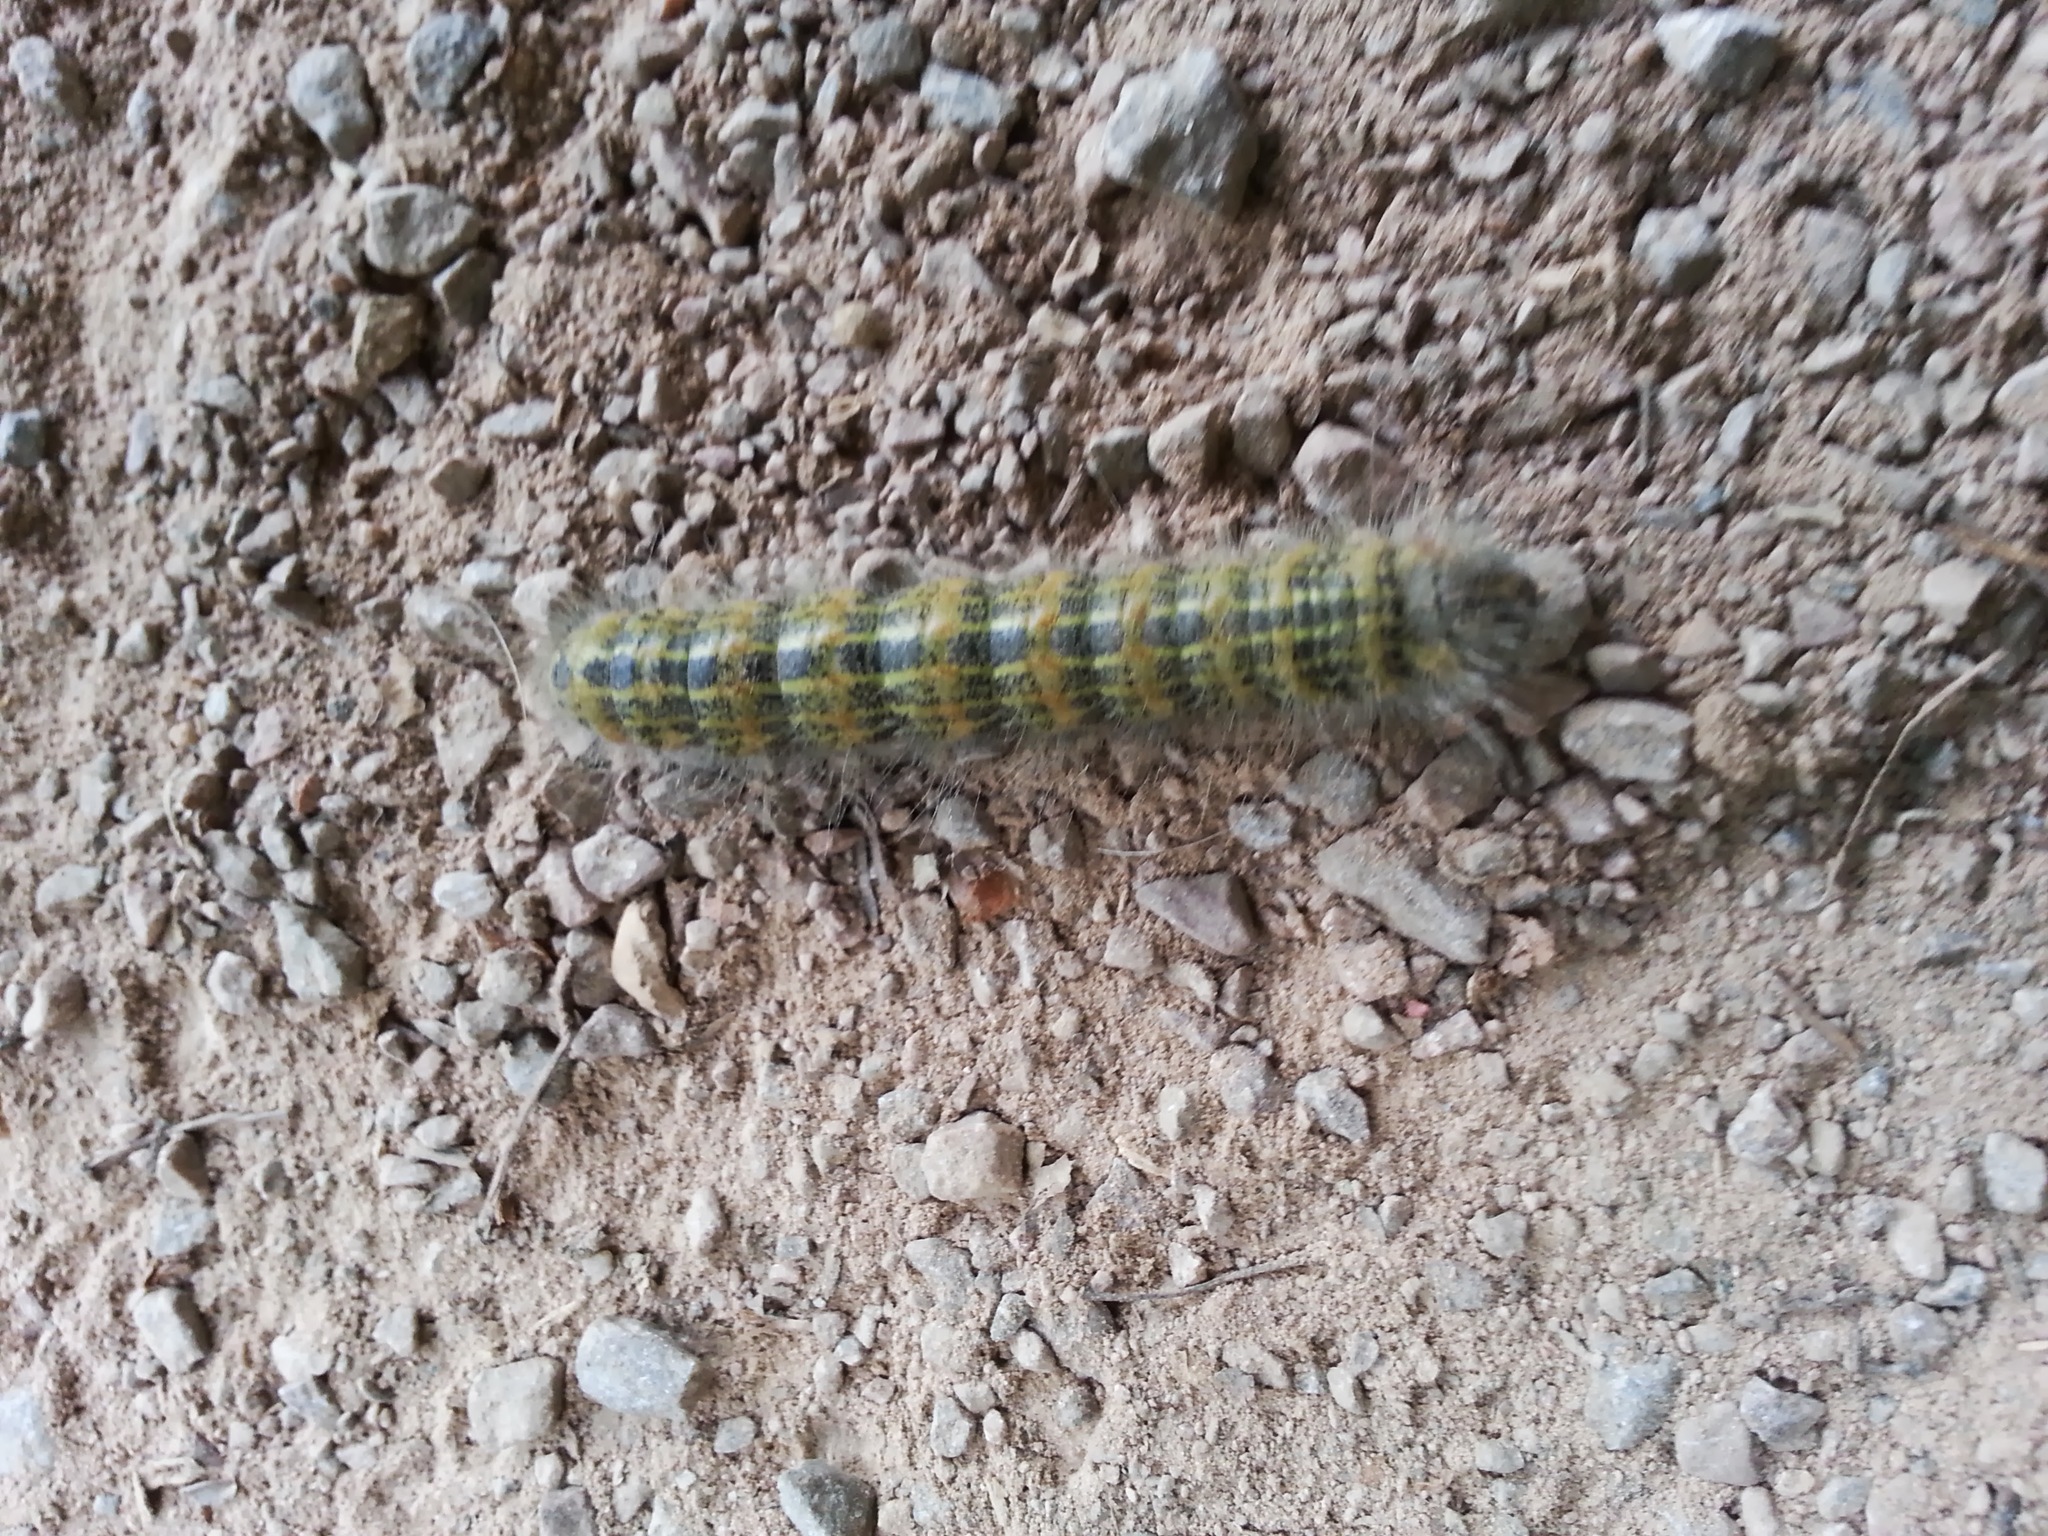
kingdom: Animalia
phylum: Arthropoda
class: Insecta
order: Lepidoptera
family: Notodontidae
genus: Phalera
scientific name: Phalera bucephala
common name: Buff-tip
